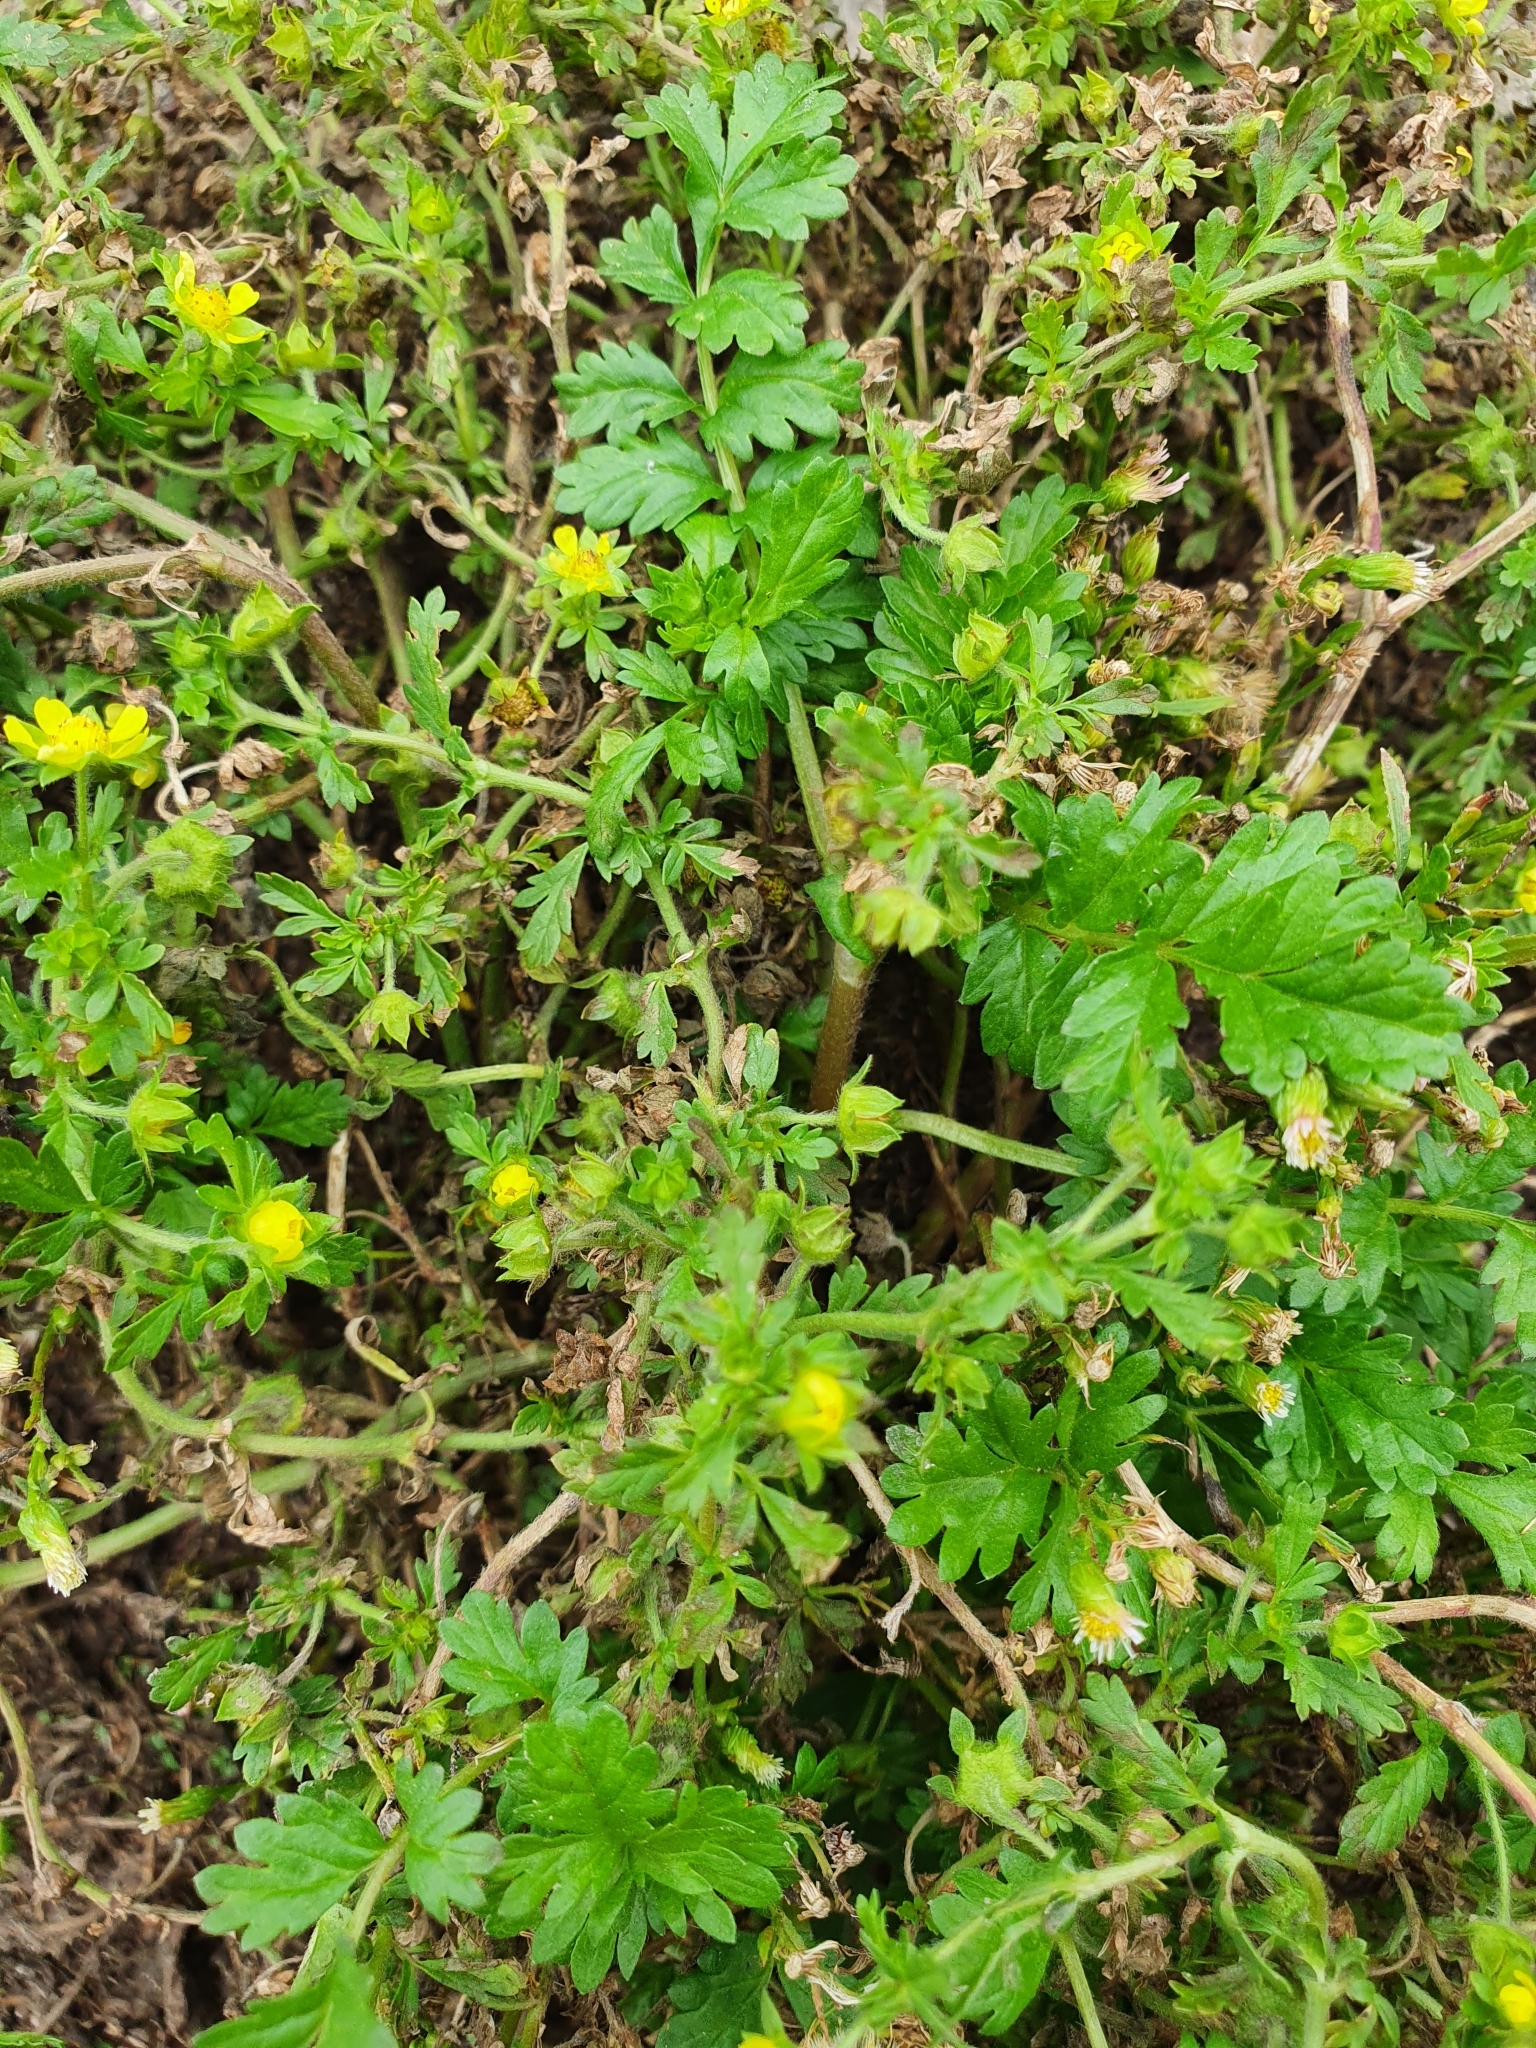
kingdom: Plantae
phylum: Tracheophyta
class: Magnoliopsida
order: Rosales
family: Rosaceae
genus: Potentilla
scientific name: Potentilla supina
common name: Prostrate cinquefoil
